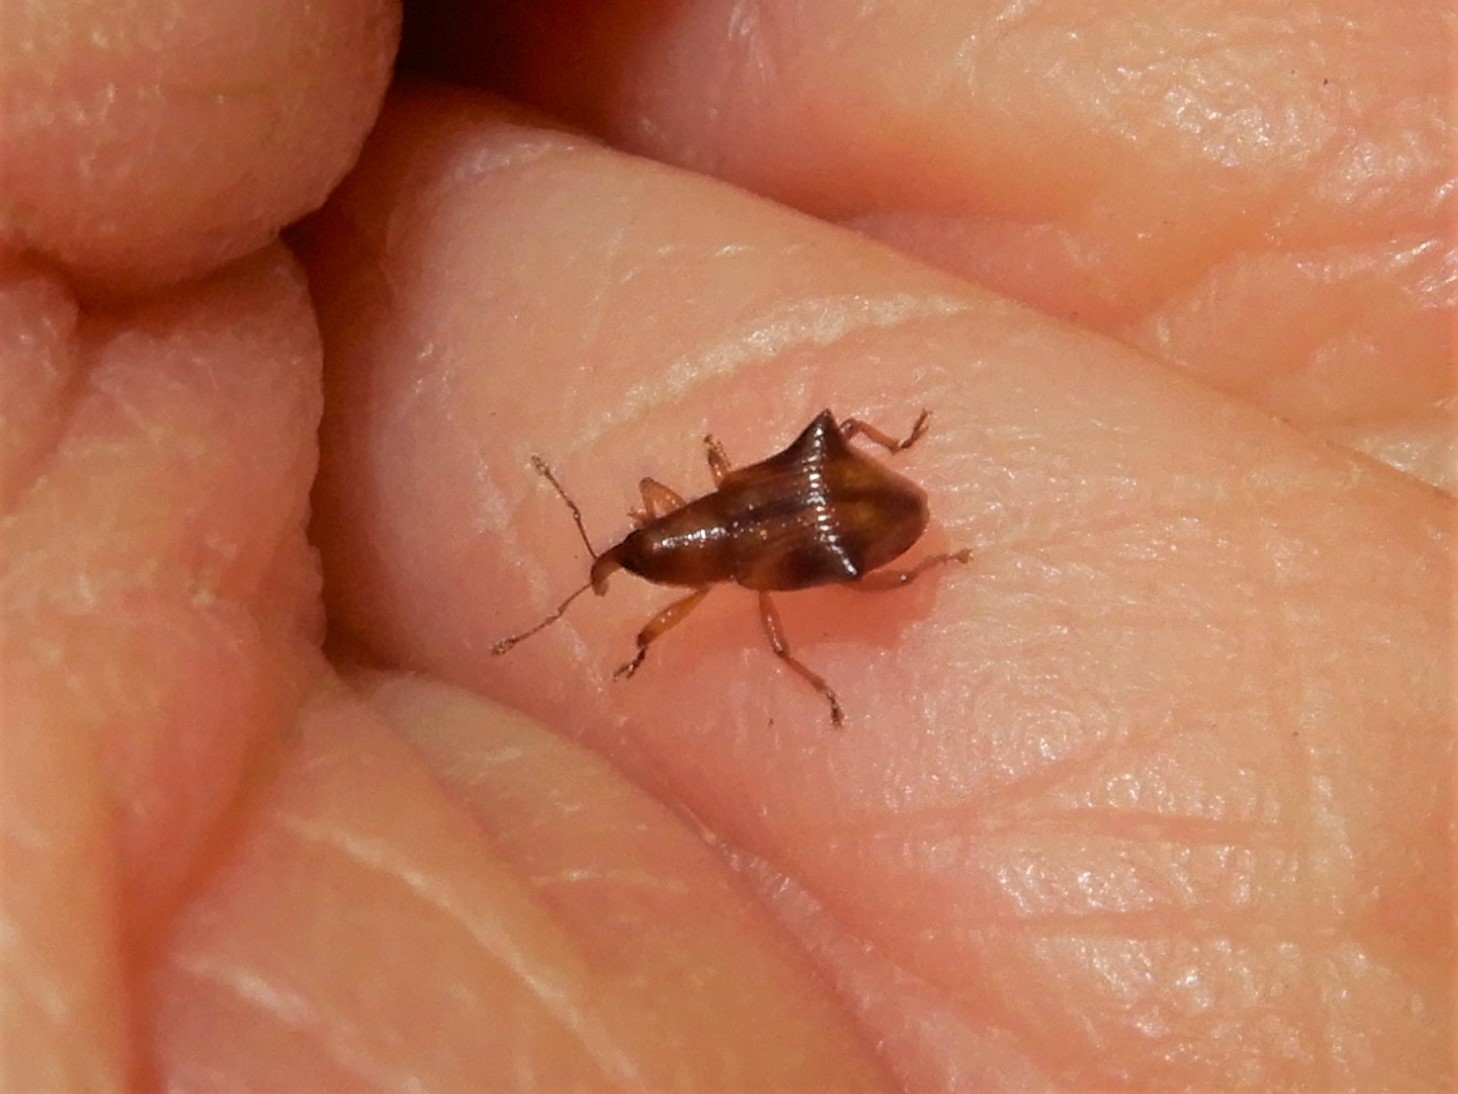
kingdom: Animalia
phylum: Arthropoda
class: Insecta
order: Coleoptera
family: Curculionidae
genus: Oropterus
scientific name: Oropterus coniger
